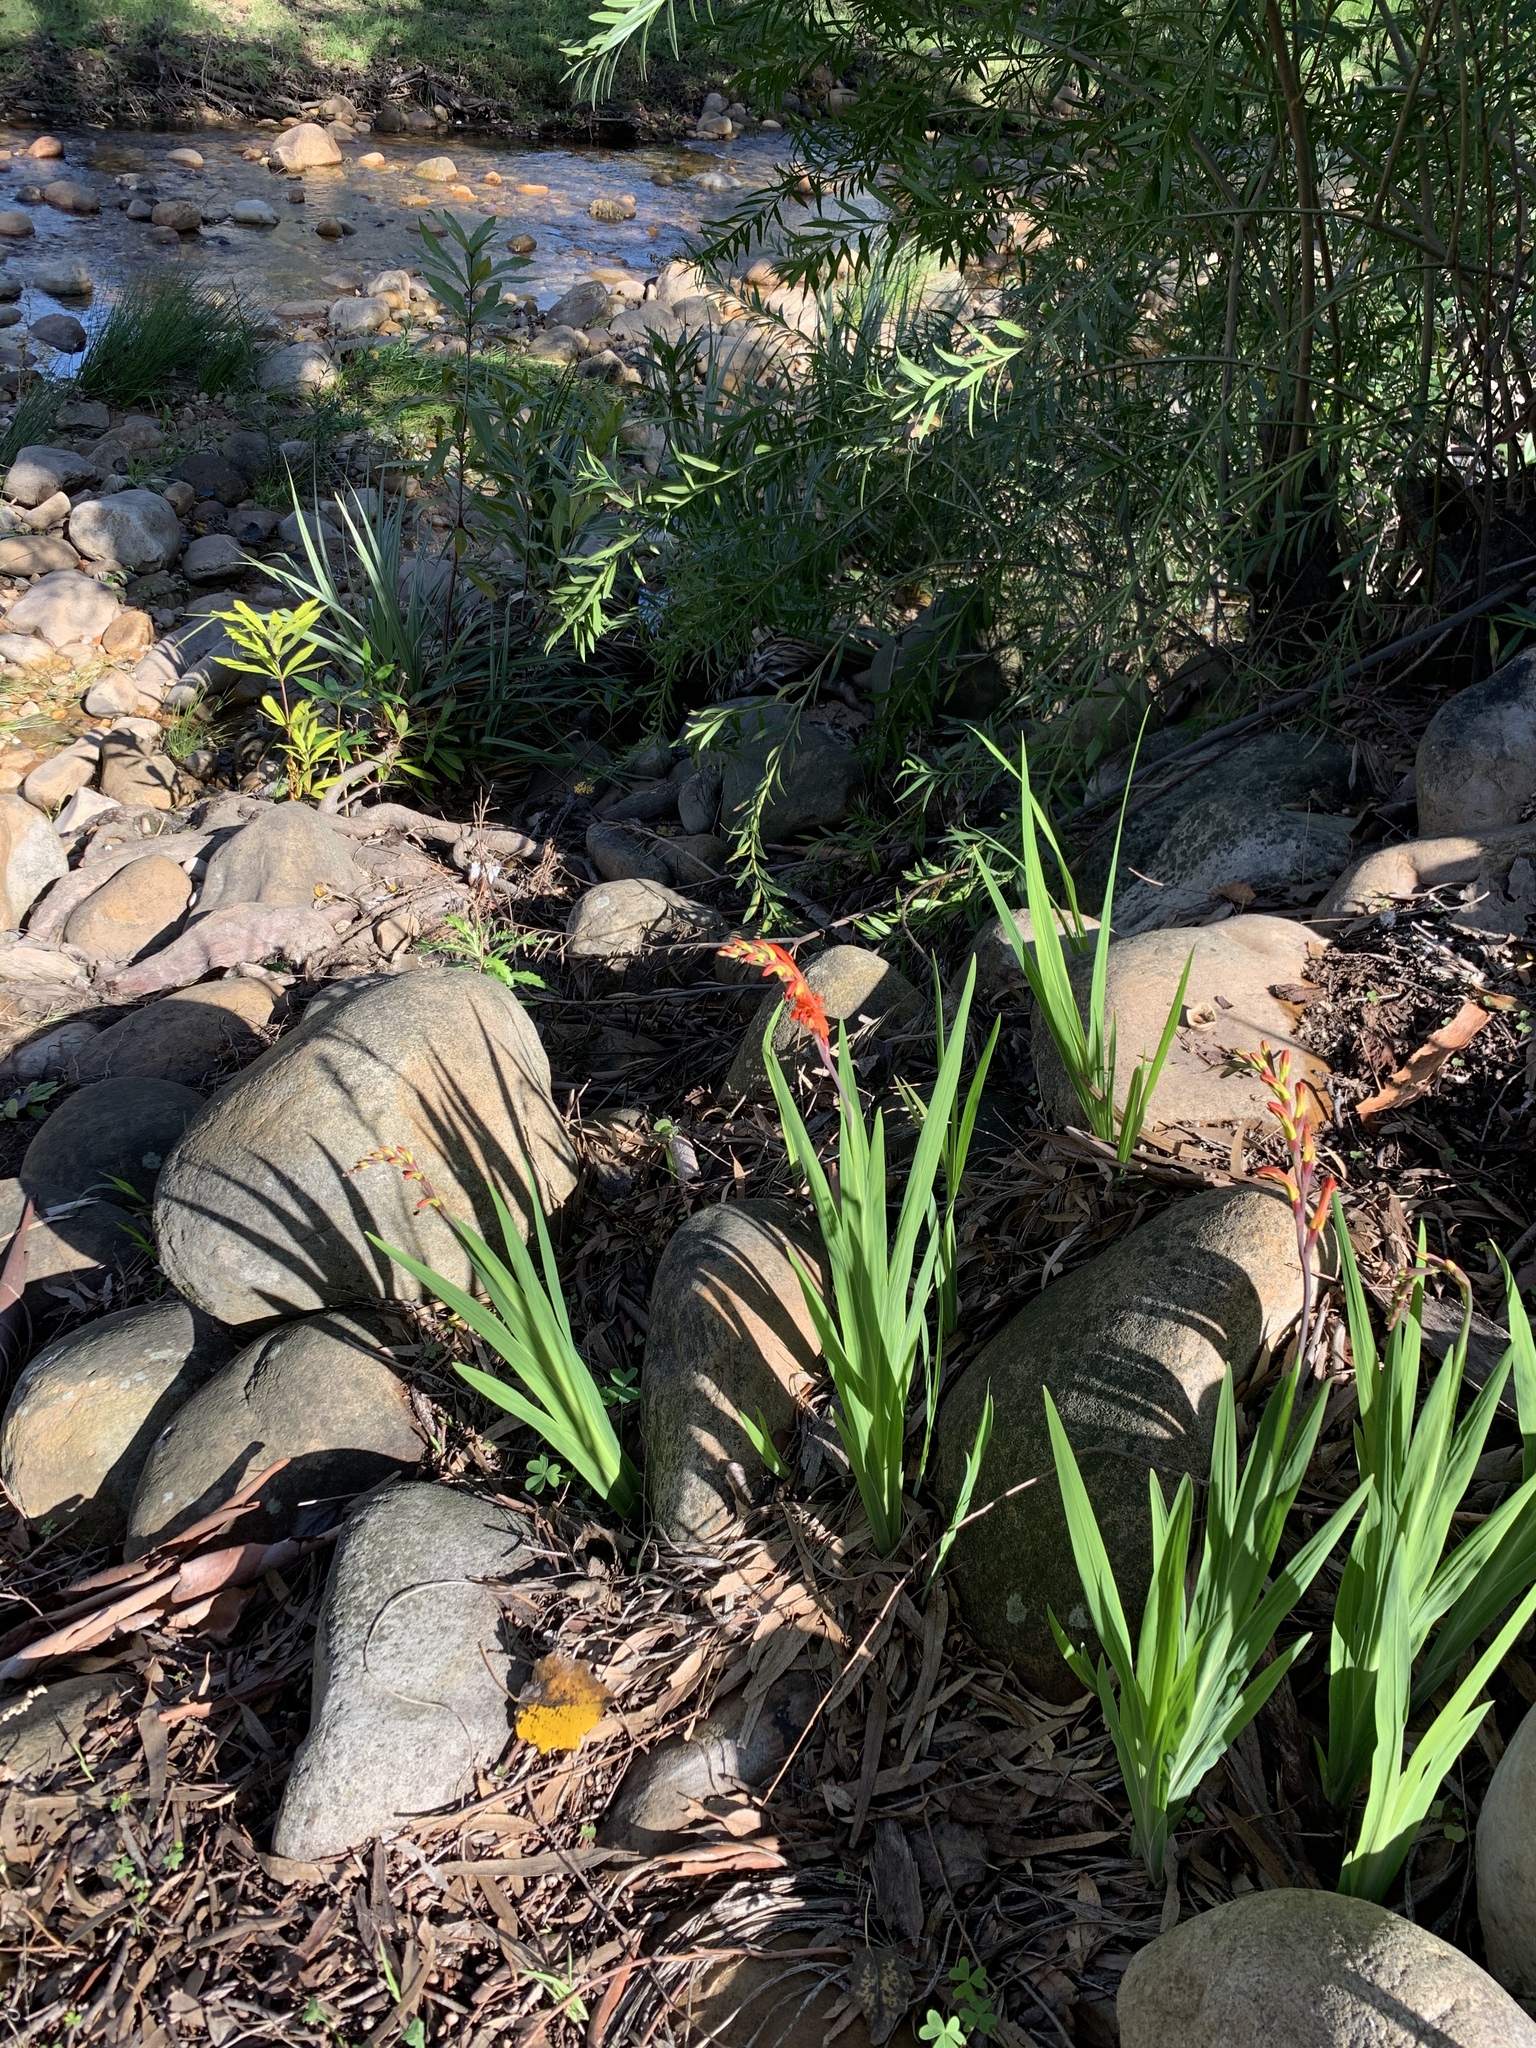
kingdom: Plantae
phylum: Tracheophyta
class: Liliopsida
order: Asparagales
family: Iridaceae
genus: Chasmanthe
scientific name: Chasmanthe aethiopica
